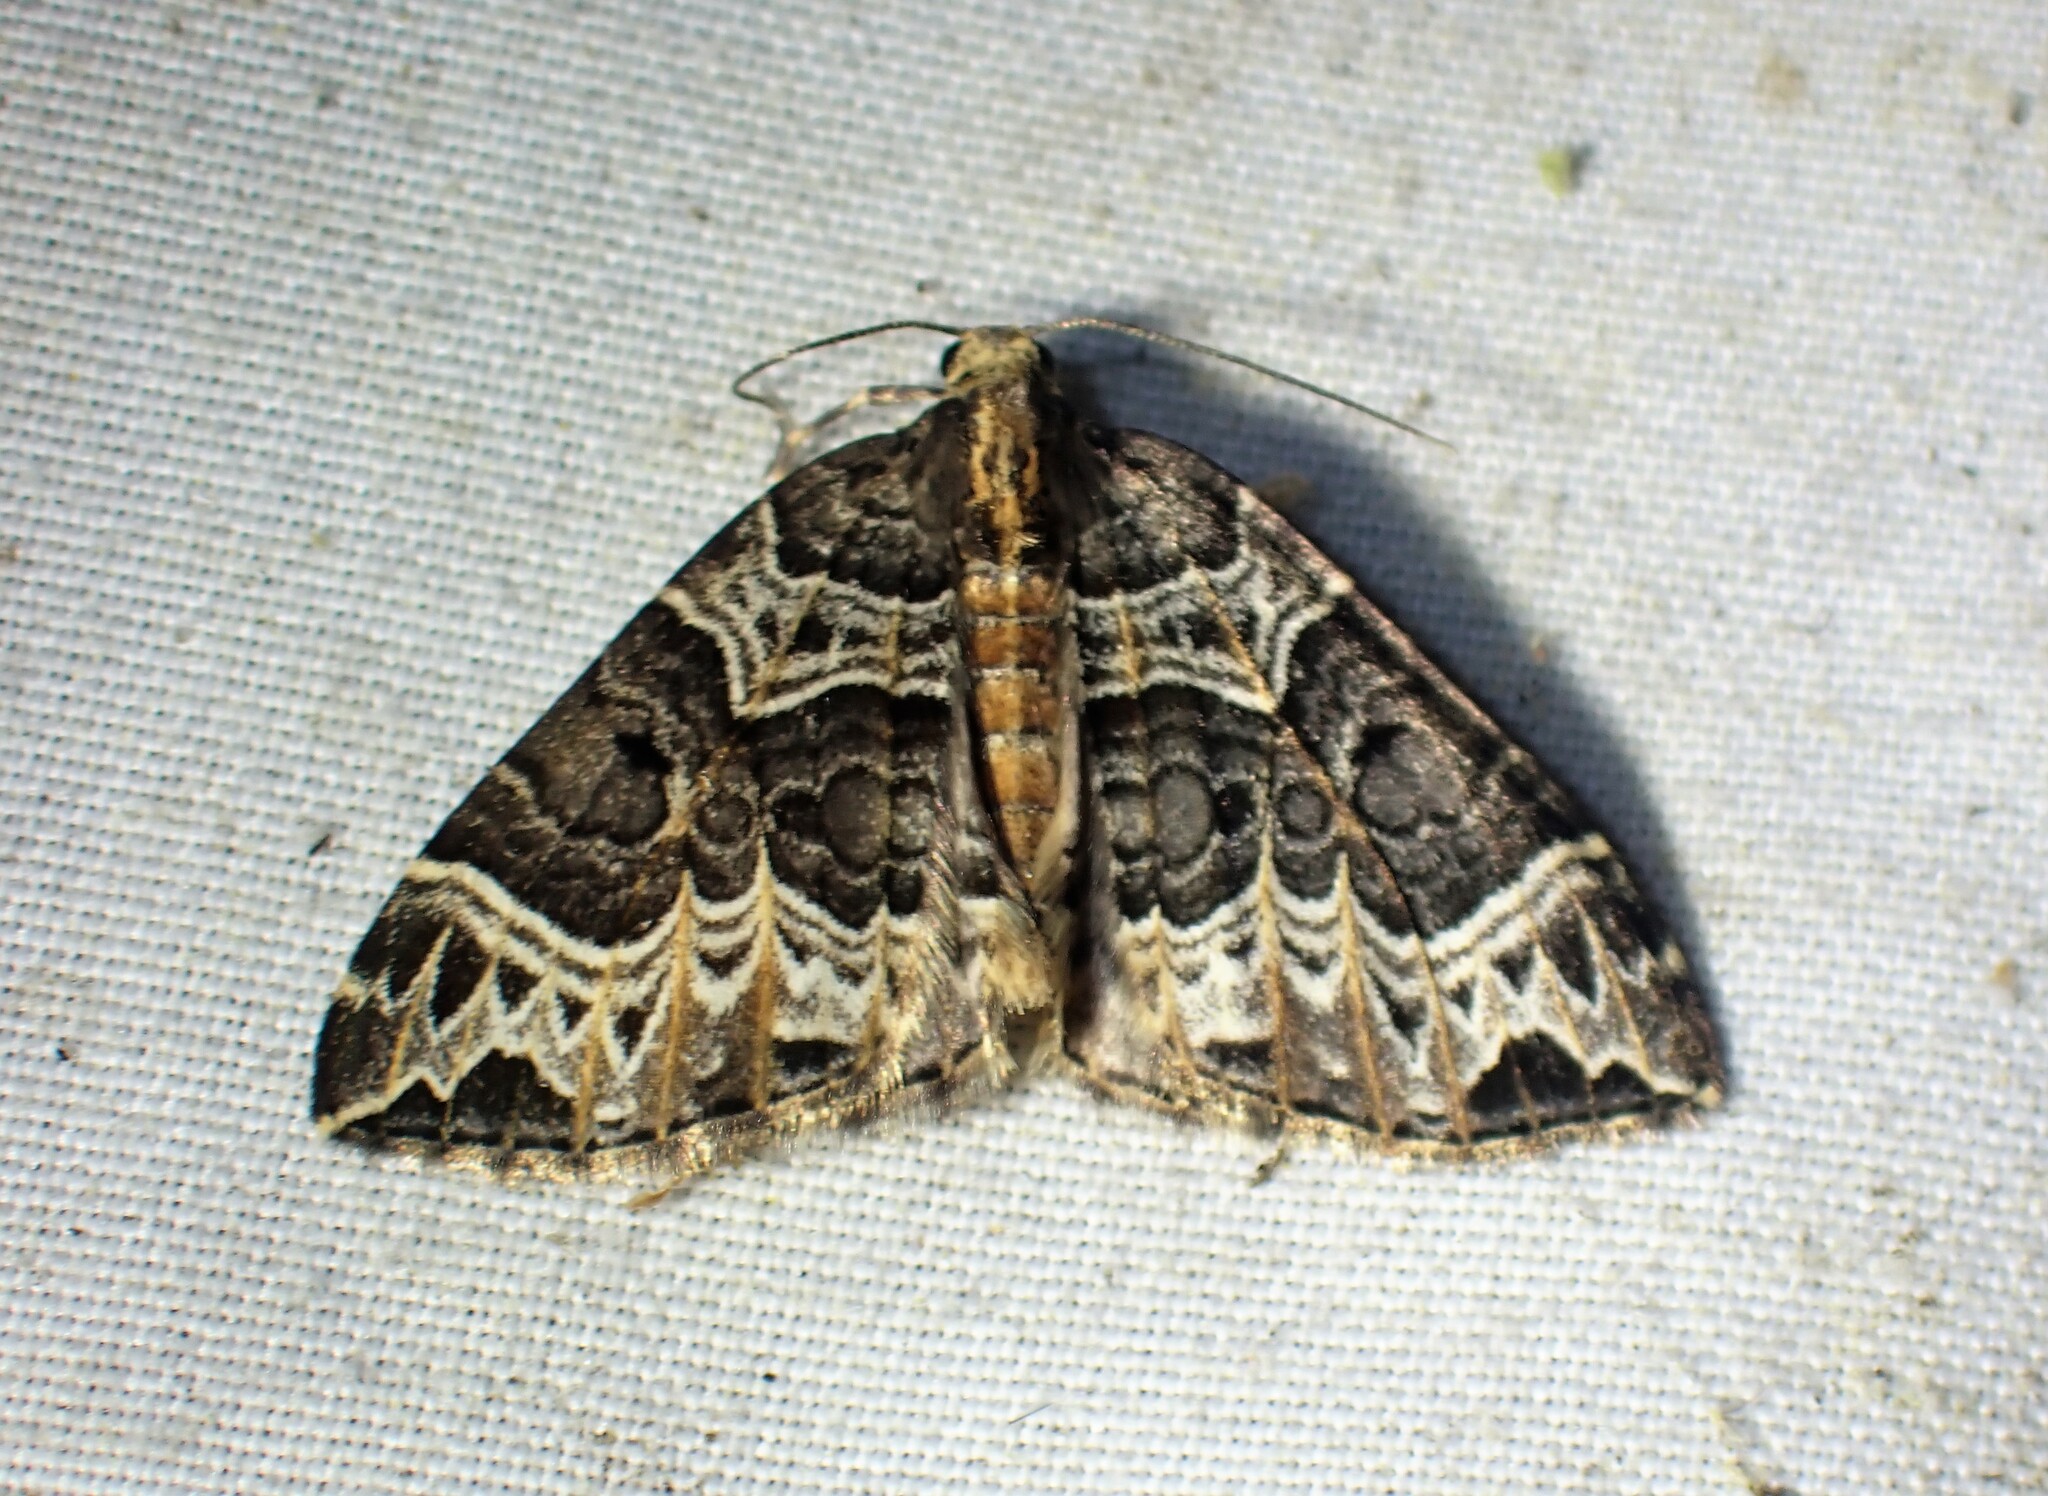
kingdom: Animalia
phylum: Arthropoda
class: Insecta
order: Lepidoptera
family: Geometridae
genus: Ecliptopera
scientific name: Ecliptopera silaceata
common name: Small phoenix
